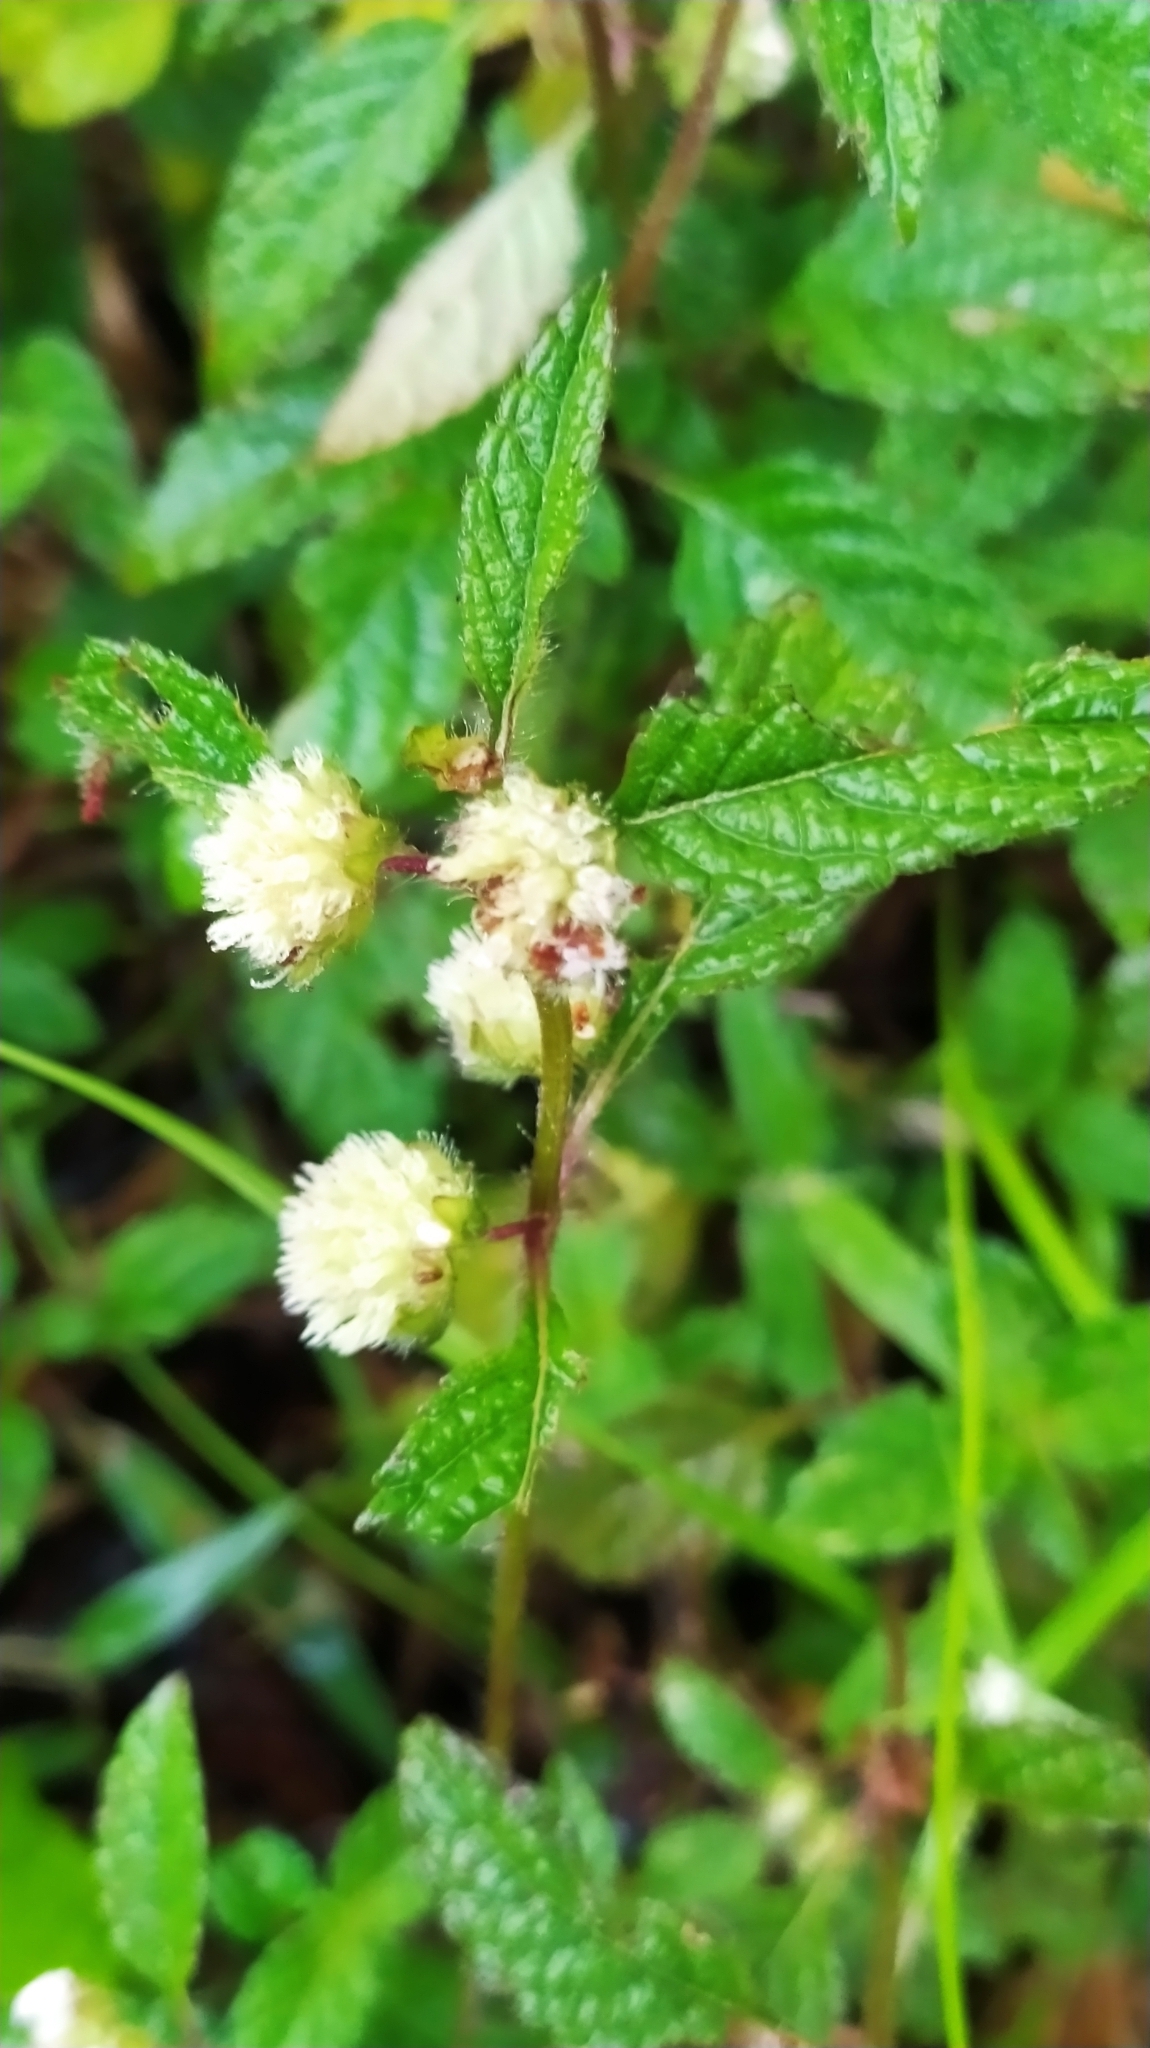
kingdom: Plantae
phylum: Tracheophyta
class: Magnoliopsida
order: Lamiales
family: Lamiaceae
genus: Hyptis
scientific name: Hyptis atrorubens
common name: Lanmant
